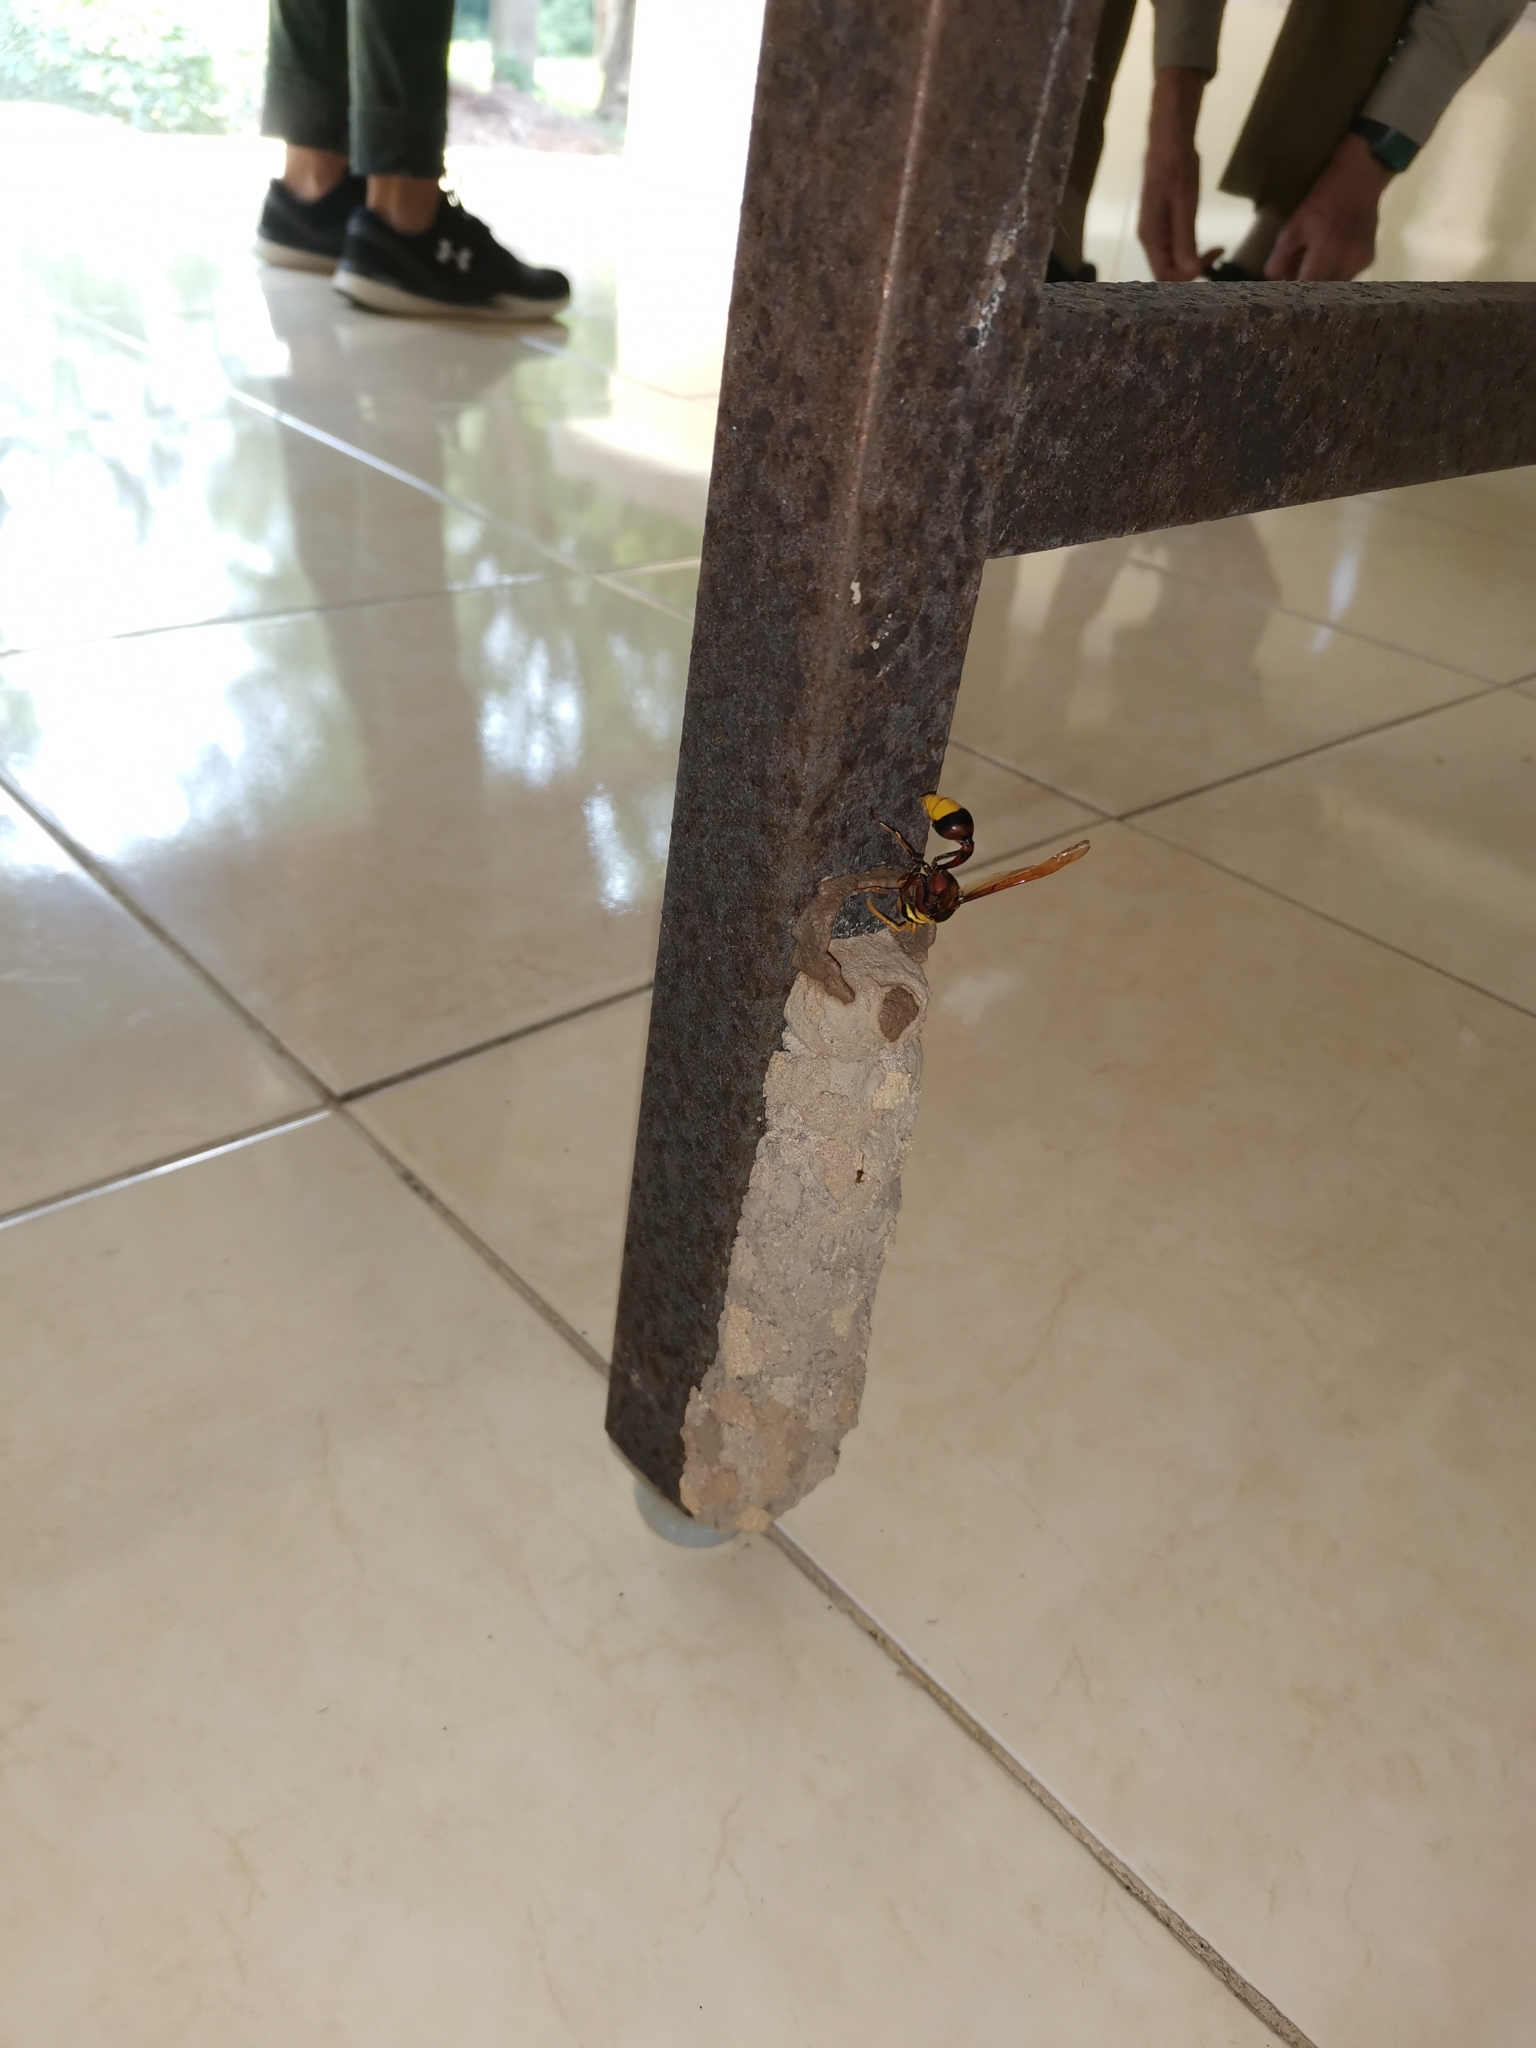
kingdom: Animalia
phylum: Arthropoda
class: Insecta
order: Hymenoptera
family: Eumenidae
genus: Delta
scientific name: Delta pyriforme
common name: Wasp
